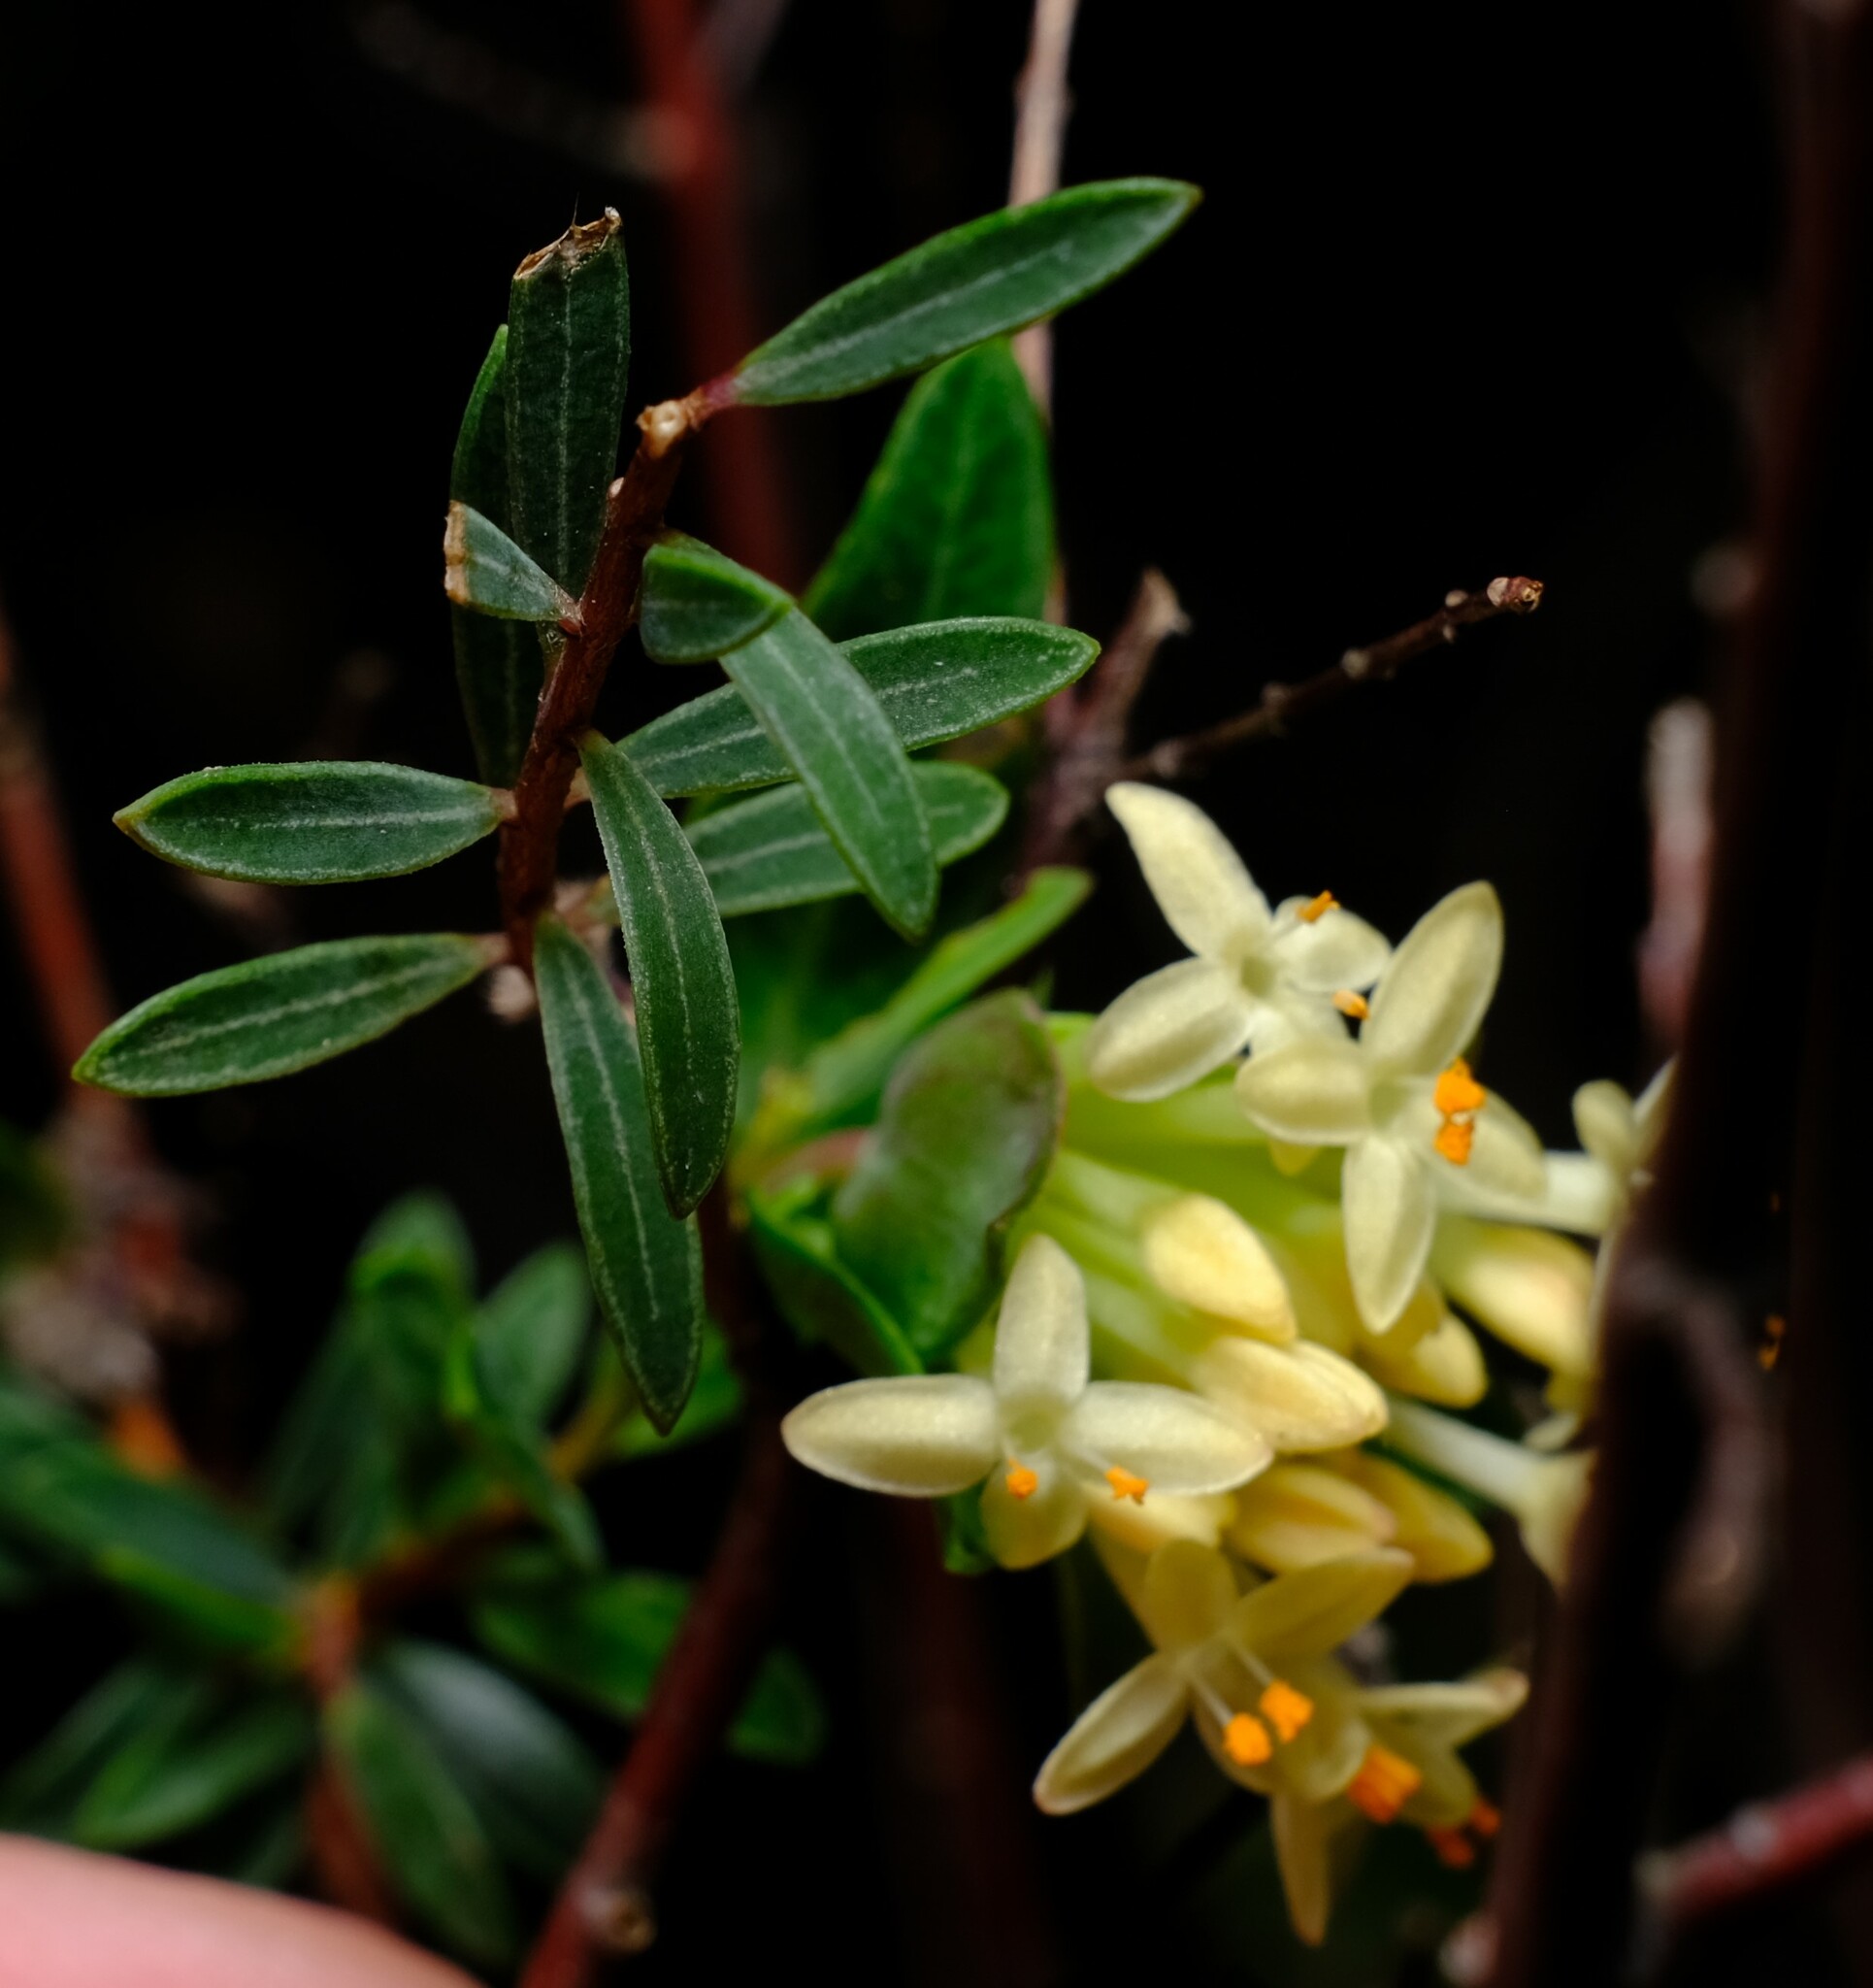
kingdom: Plantae
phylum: Tracheophyta
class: Magnoliopsida
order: Malvales
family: Thymelaeaceae
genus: Pimelea
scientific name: Pimelea linifolia
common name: Queen-of-the-bush
